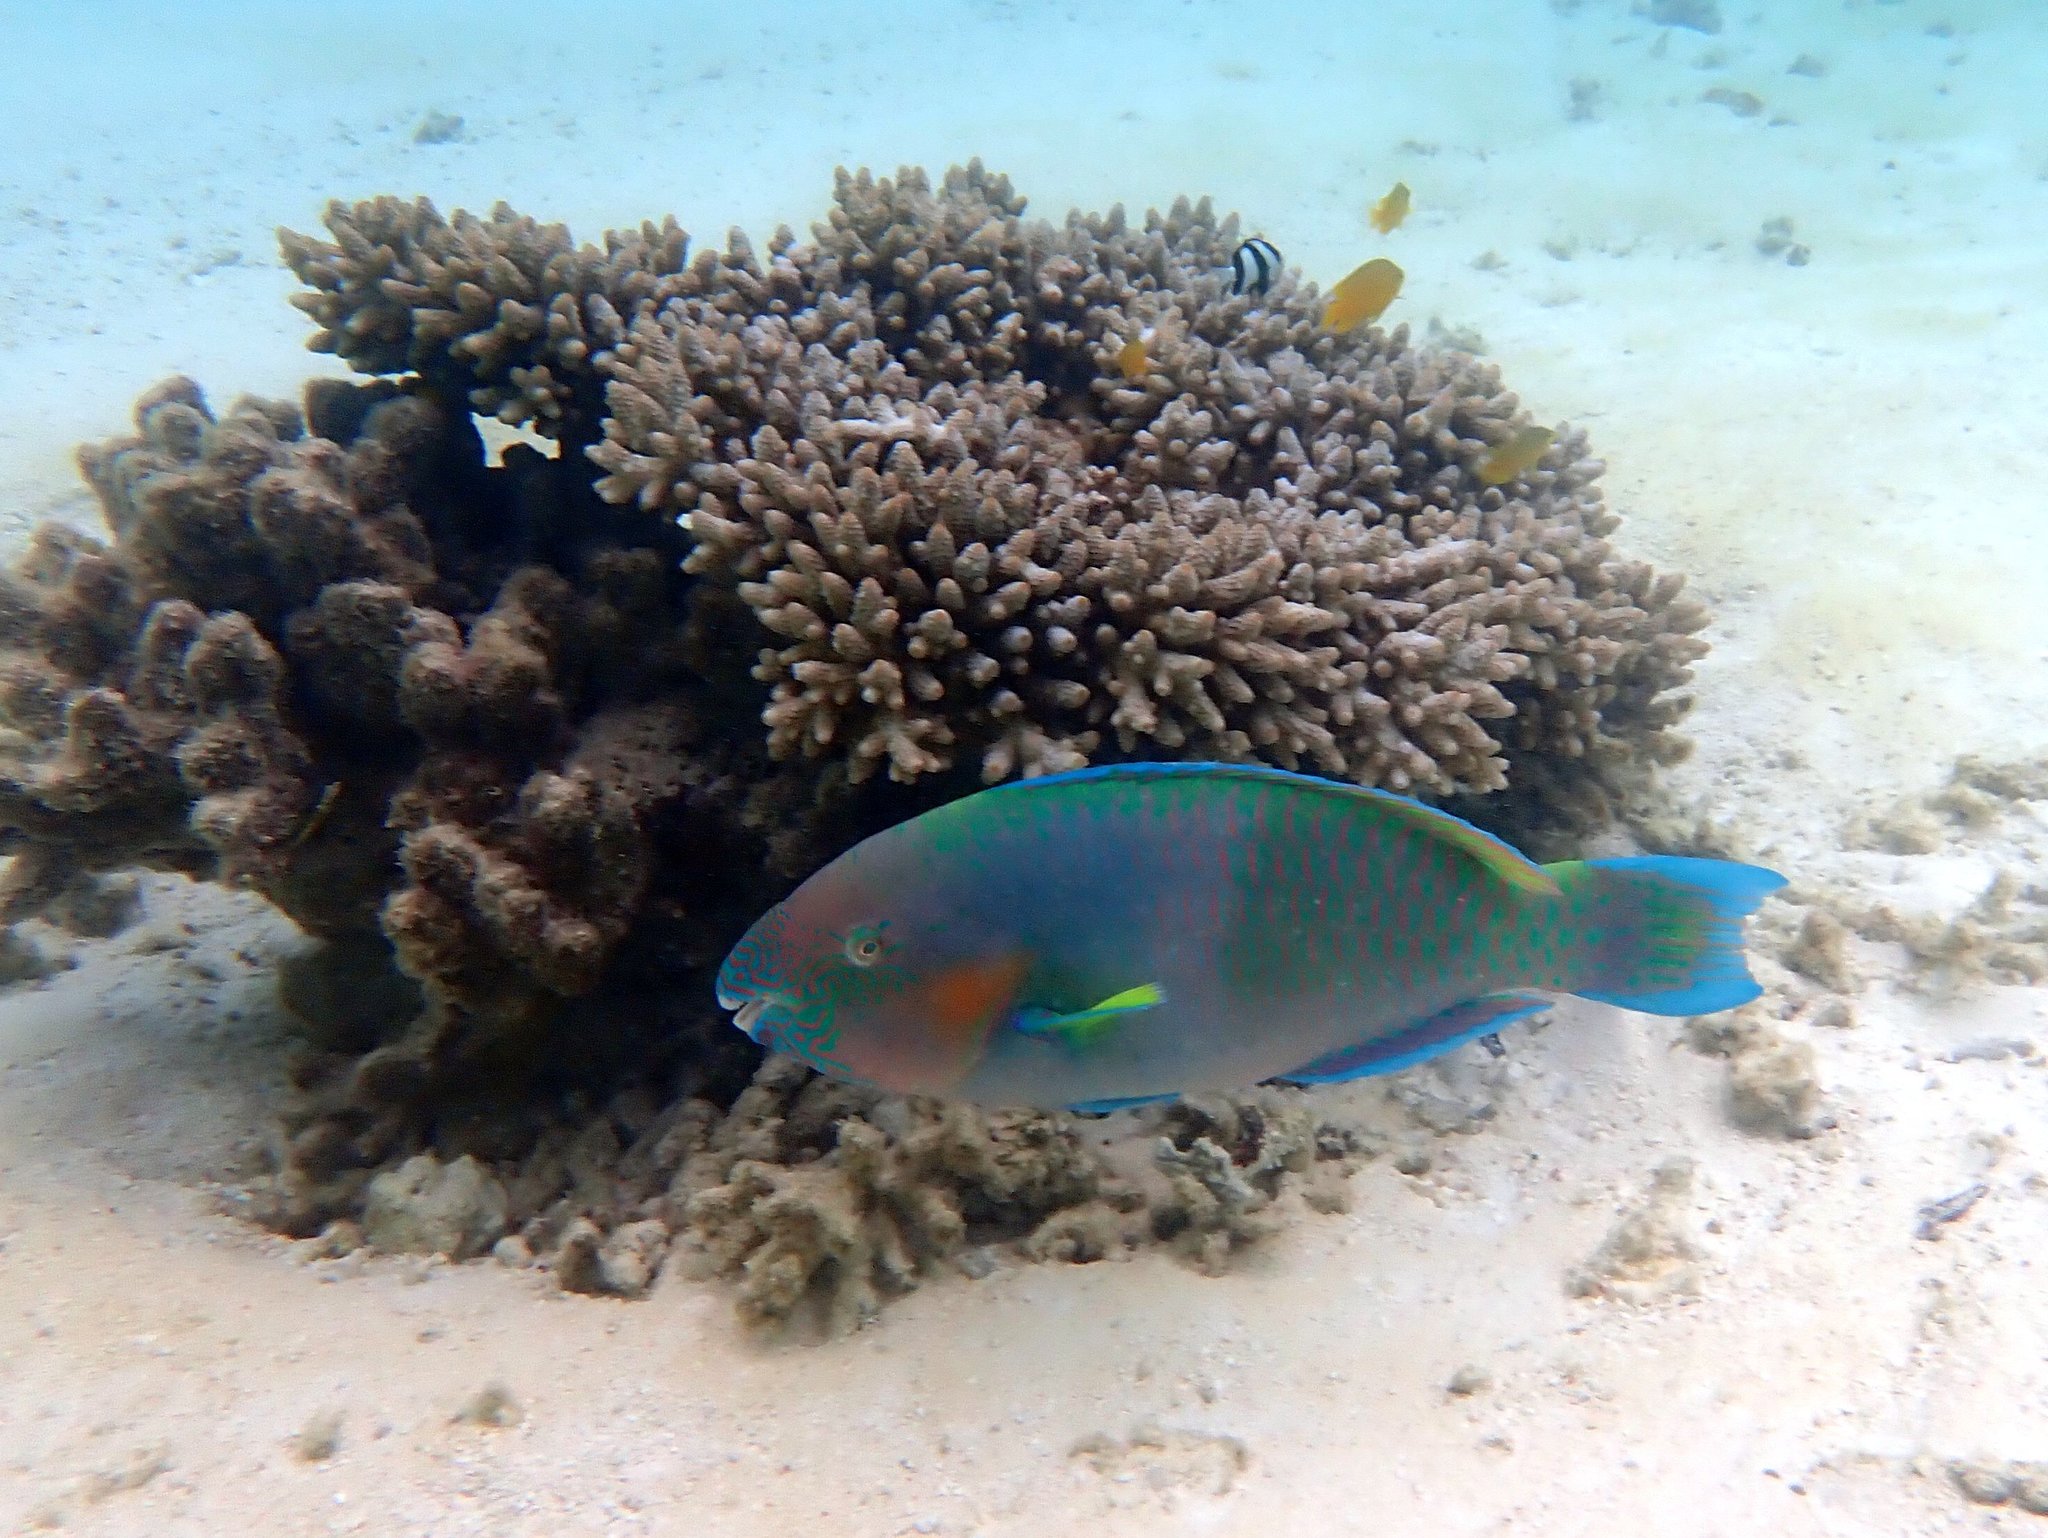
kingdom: Animalia
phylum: Chordata
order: Perciformes
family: Scaridae
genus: Scarus
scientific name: Scarus rivulatus
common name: Surf parrotfish
